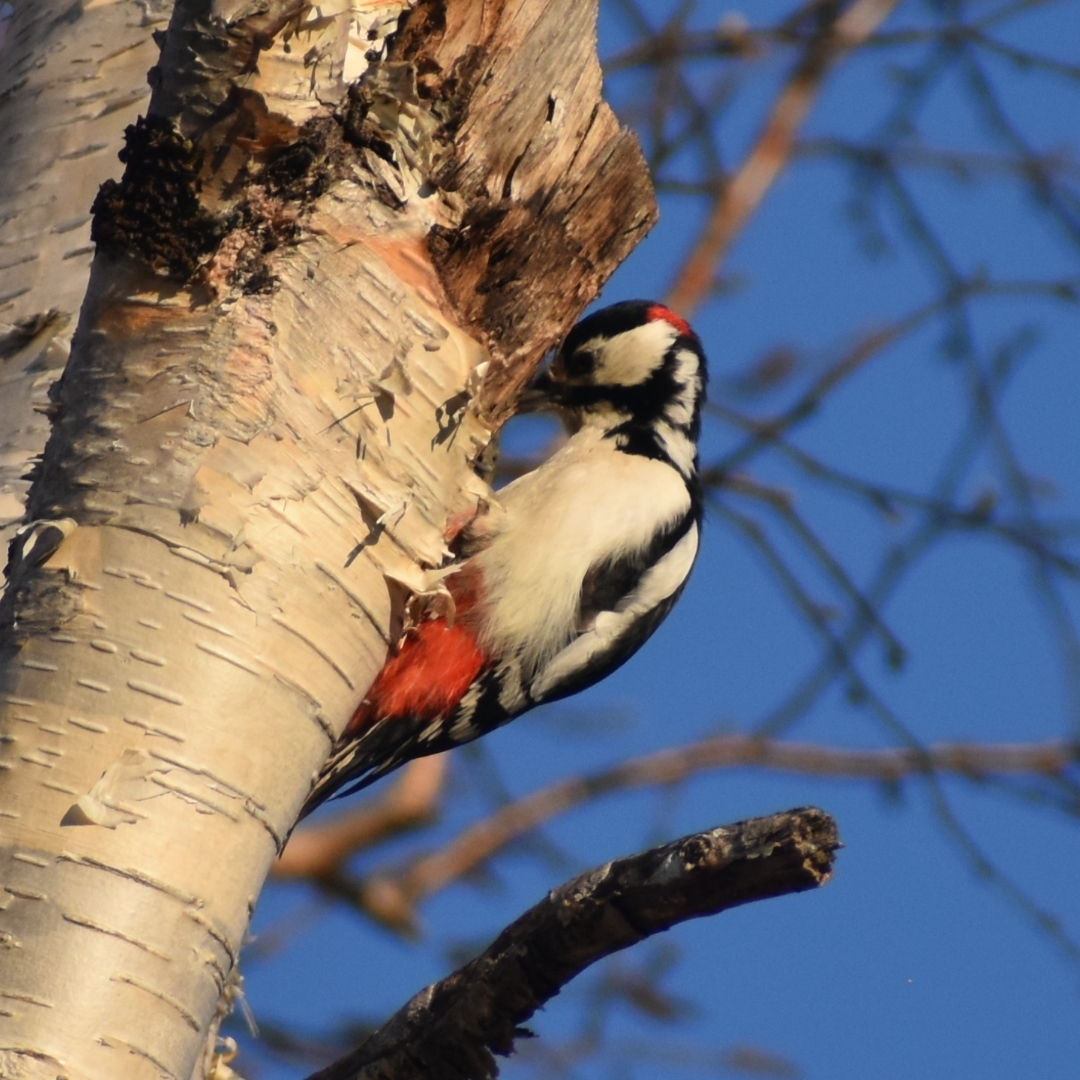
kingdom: Animalia
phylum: Chordata
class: Aves
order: Piciformes
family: Picidae
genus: Dendrocopos
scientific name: Dendrocopos major
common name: Great spotted woodpecker
